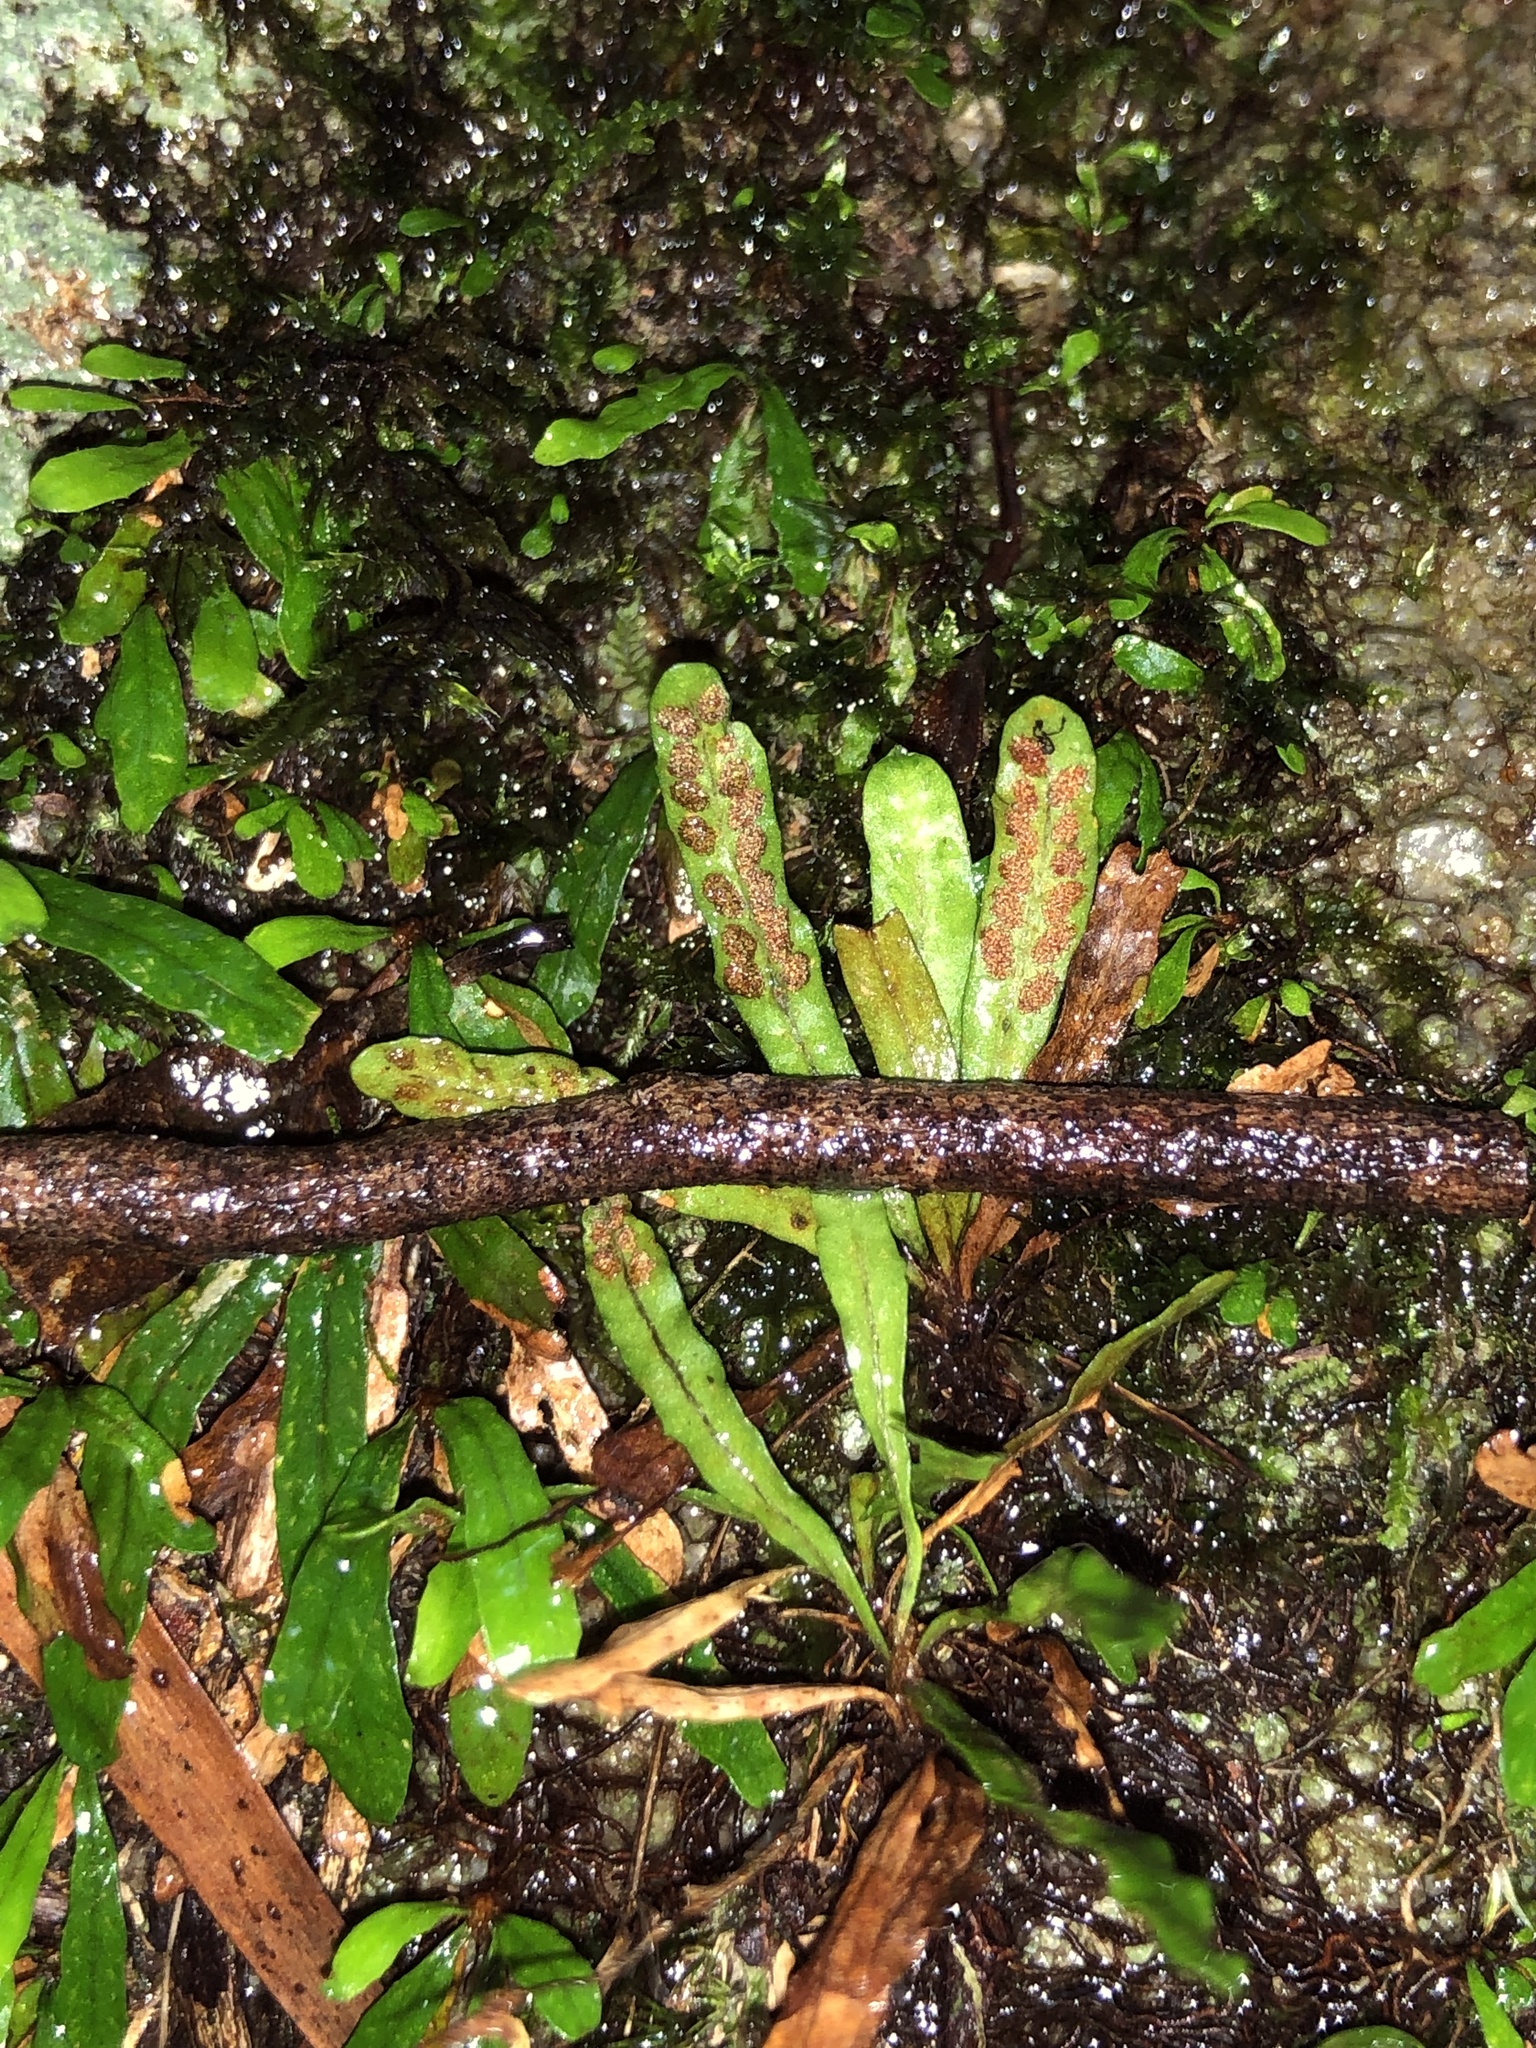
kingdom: Plantae
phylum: Tracheophyta
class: Polypodiopsida
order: Polypodiales
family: Polypodiaceae
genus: Grammitis
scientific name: Grammitis stenophylla
